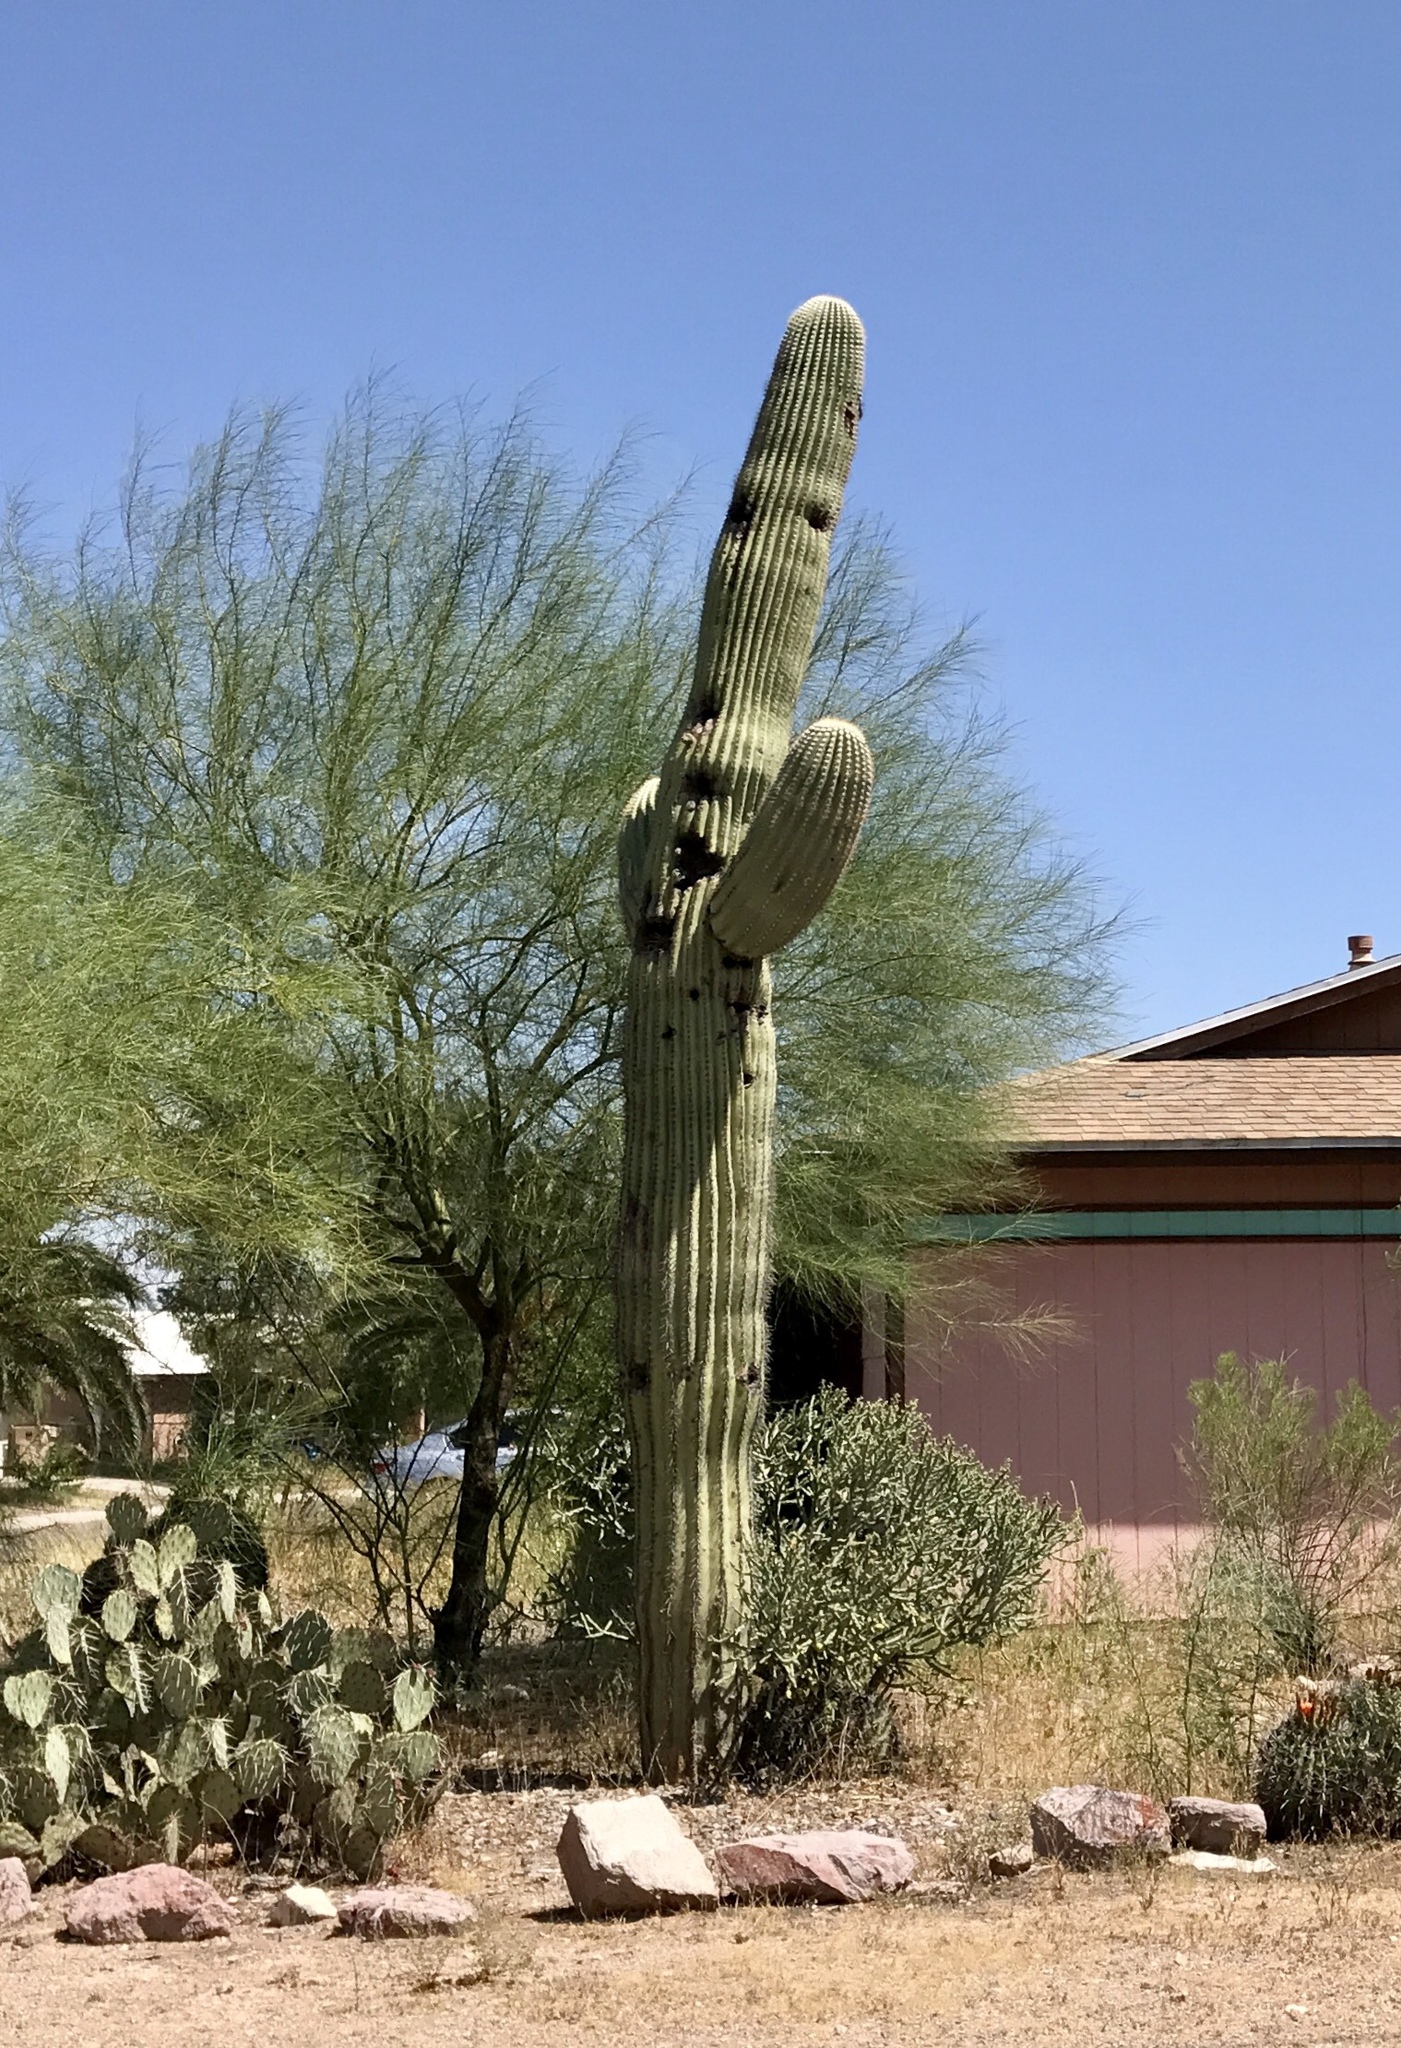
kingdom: Plantae
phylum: Tracheophyta
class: Magnoliopsida
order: Caryophyllales
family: Cactaceae
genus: Carnegiea
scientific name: Carnegiea gigantea
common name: Saguaro
